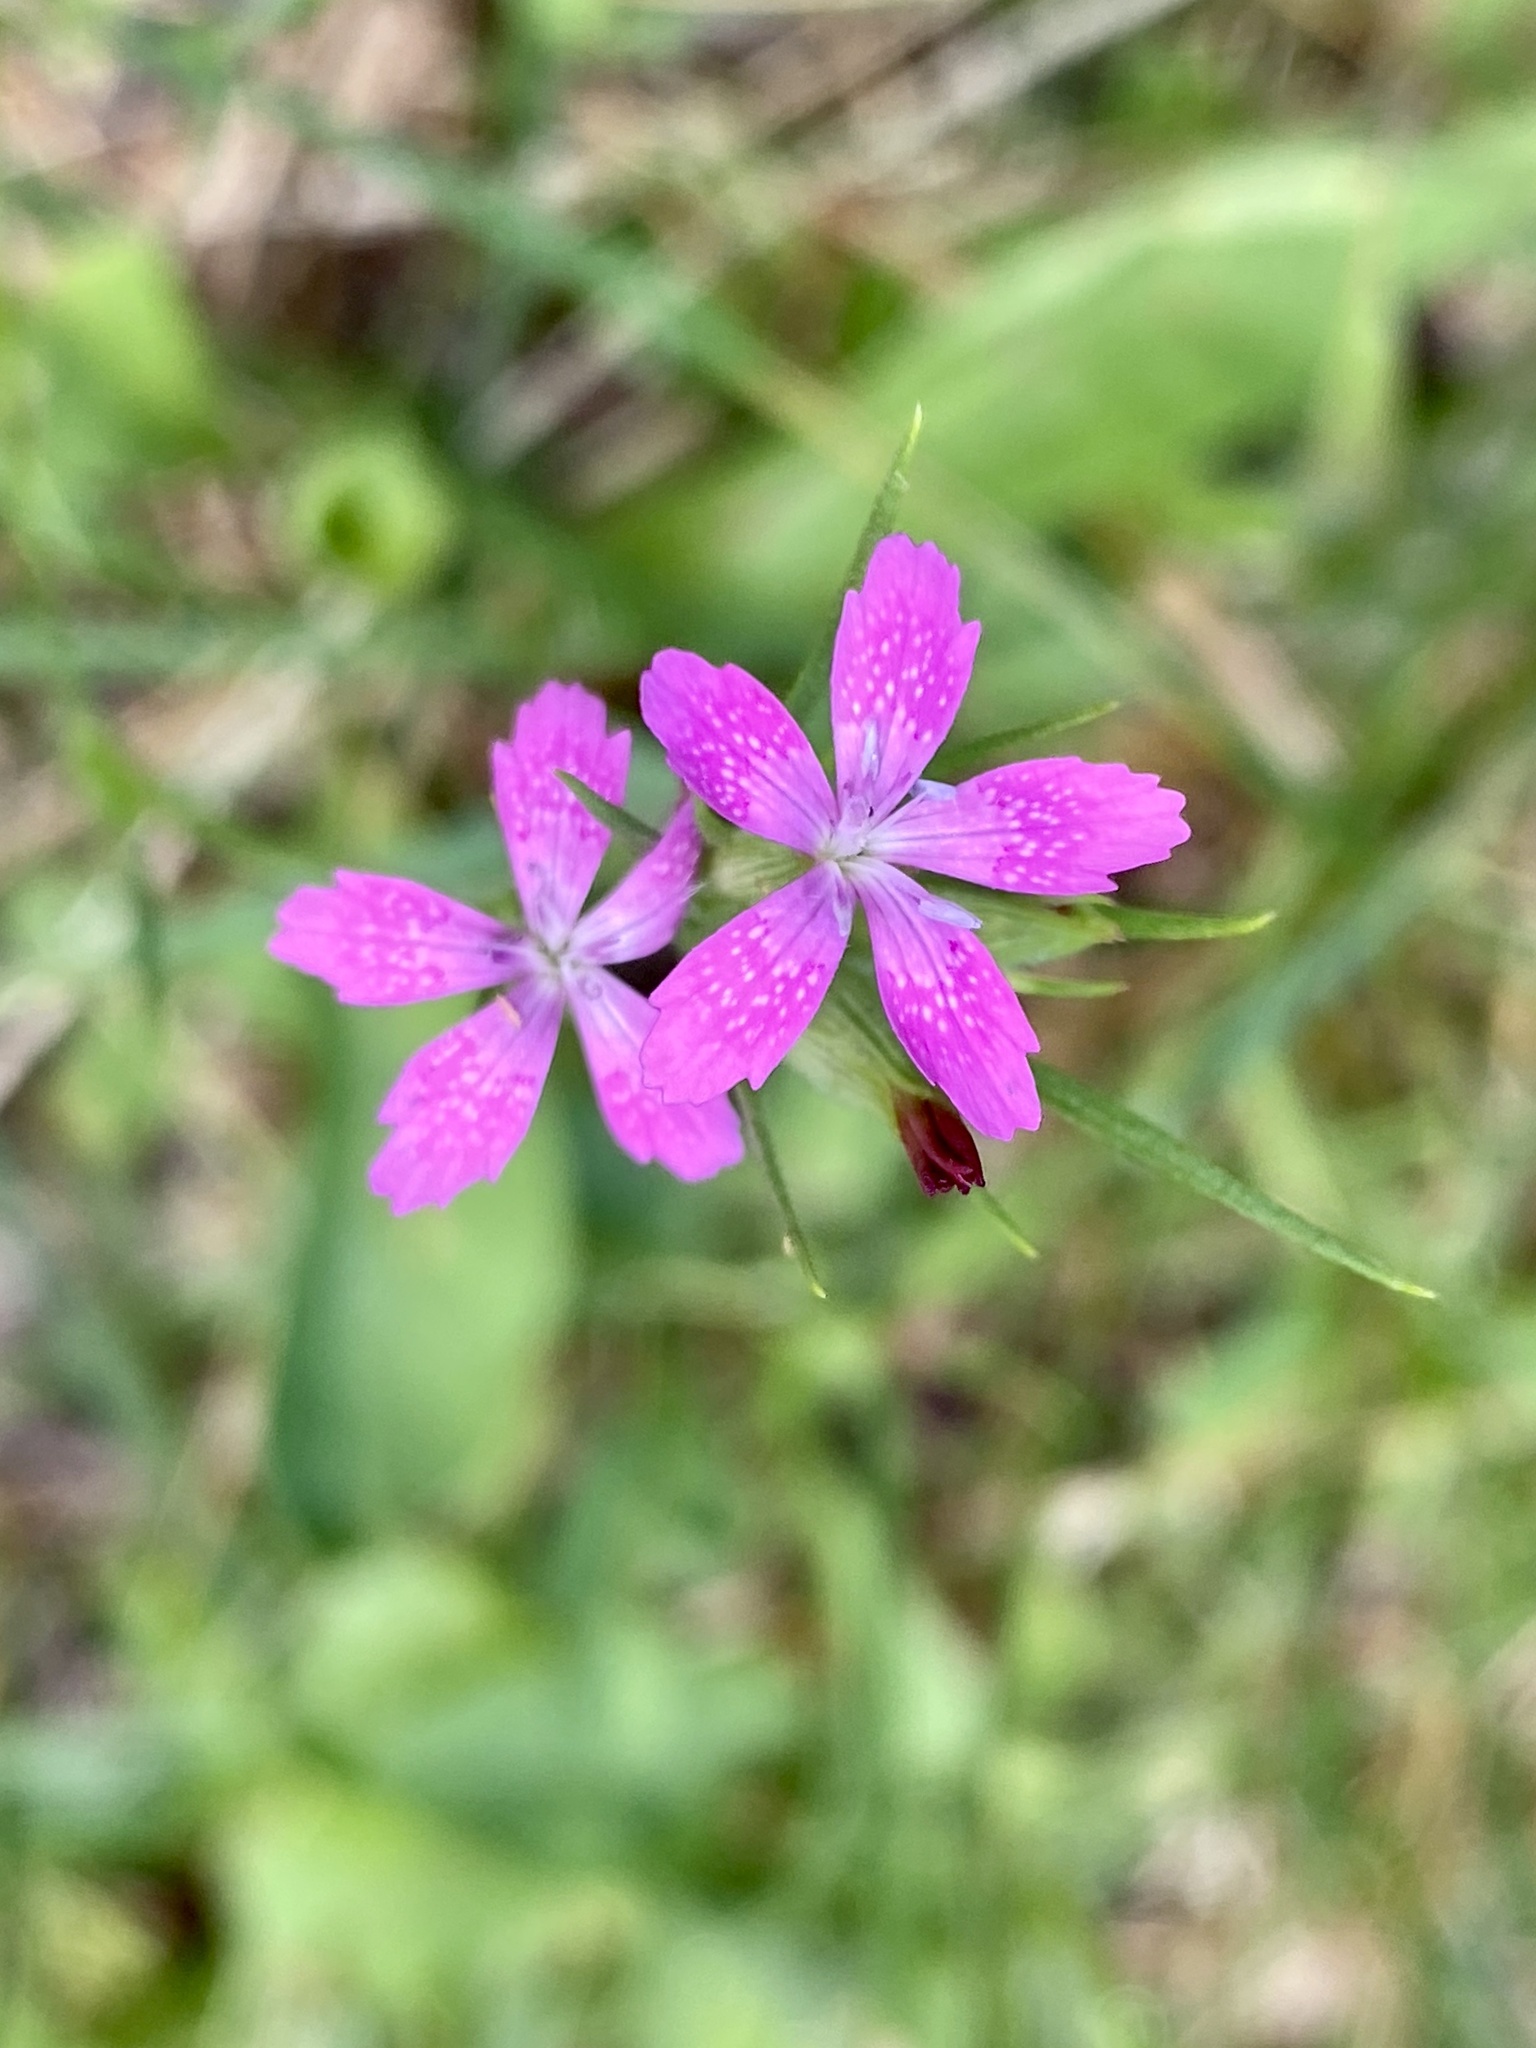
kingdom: Plantae
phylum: Tracheophyta
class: Magnoliopsida
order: Caryophyllales
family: Caryophyllaceae
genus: Dianthus
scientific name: Dianthus armeria
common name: Deptford pink
